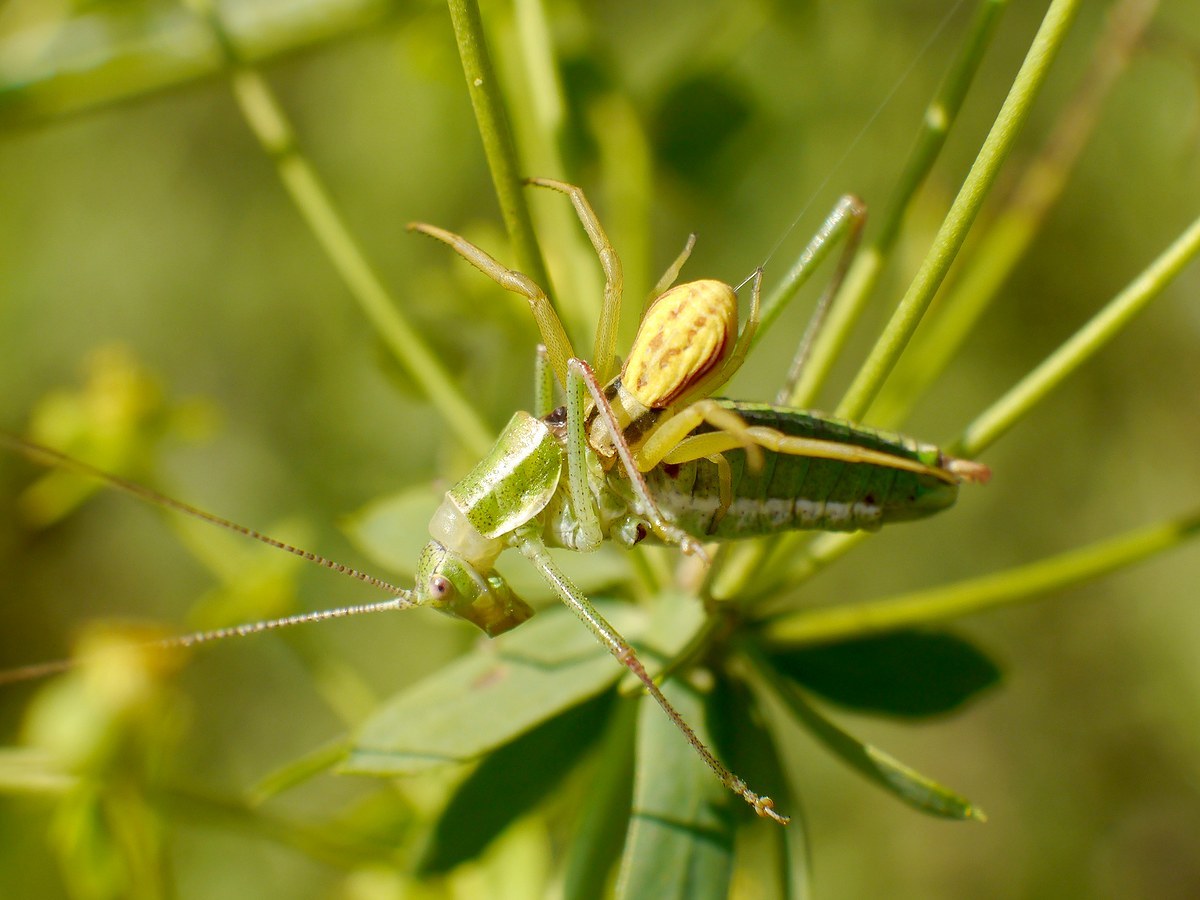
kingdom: Animalia
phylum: Arthropoda
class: Arachnida
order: Araneae
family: Thomisidae
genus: Runcinia
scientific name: Runcinia grammica
